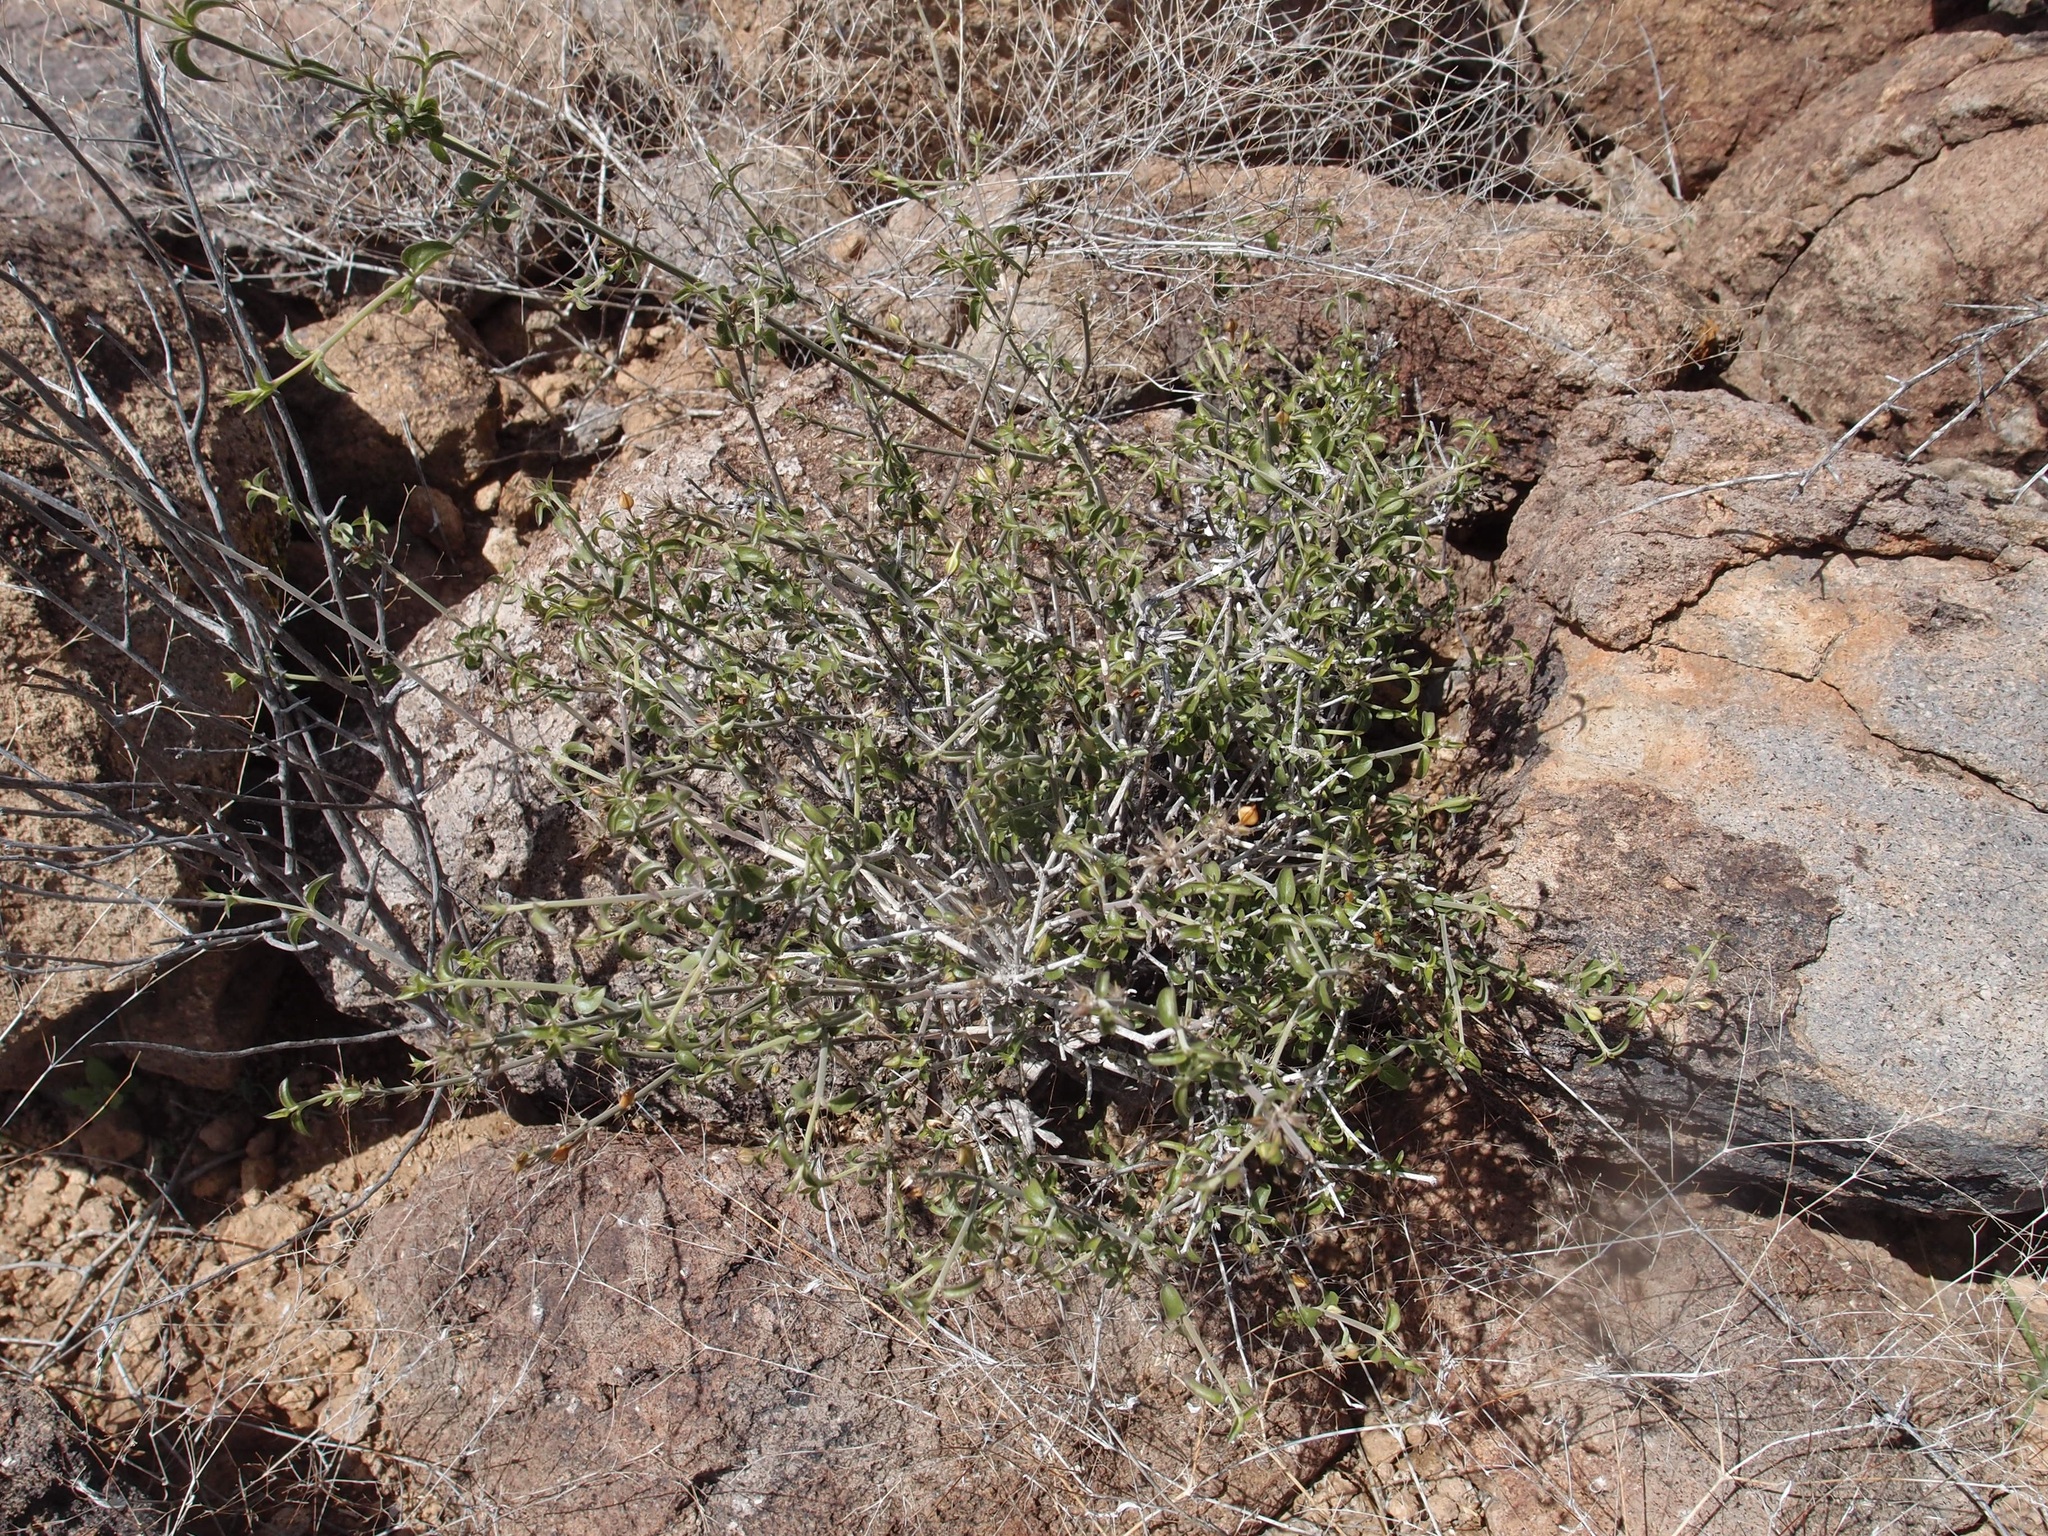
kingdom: Plantae
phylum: Tracheophyta
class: Magnoliopsida
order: Lamiales
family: Acanthaceae
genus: Carlowrightia
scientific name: Carlowrightia arizonica
